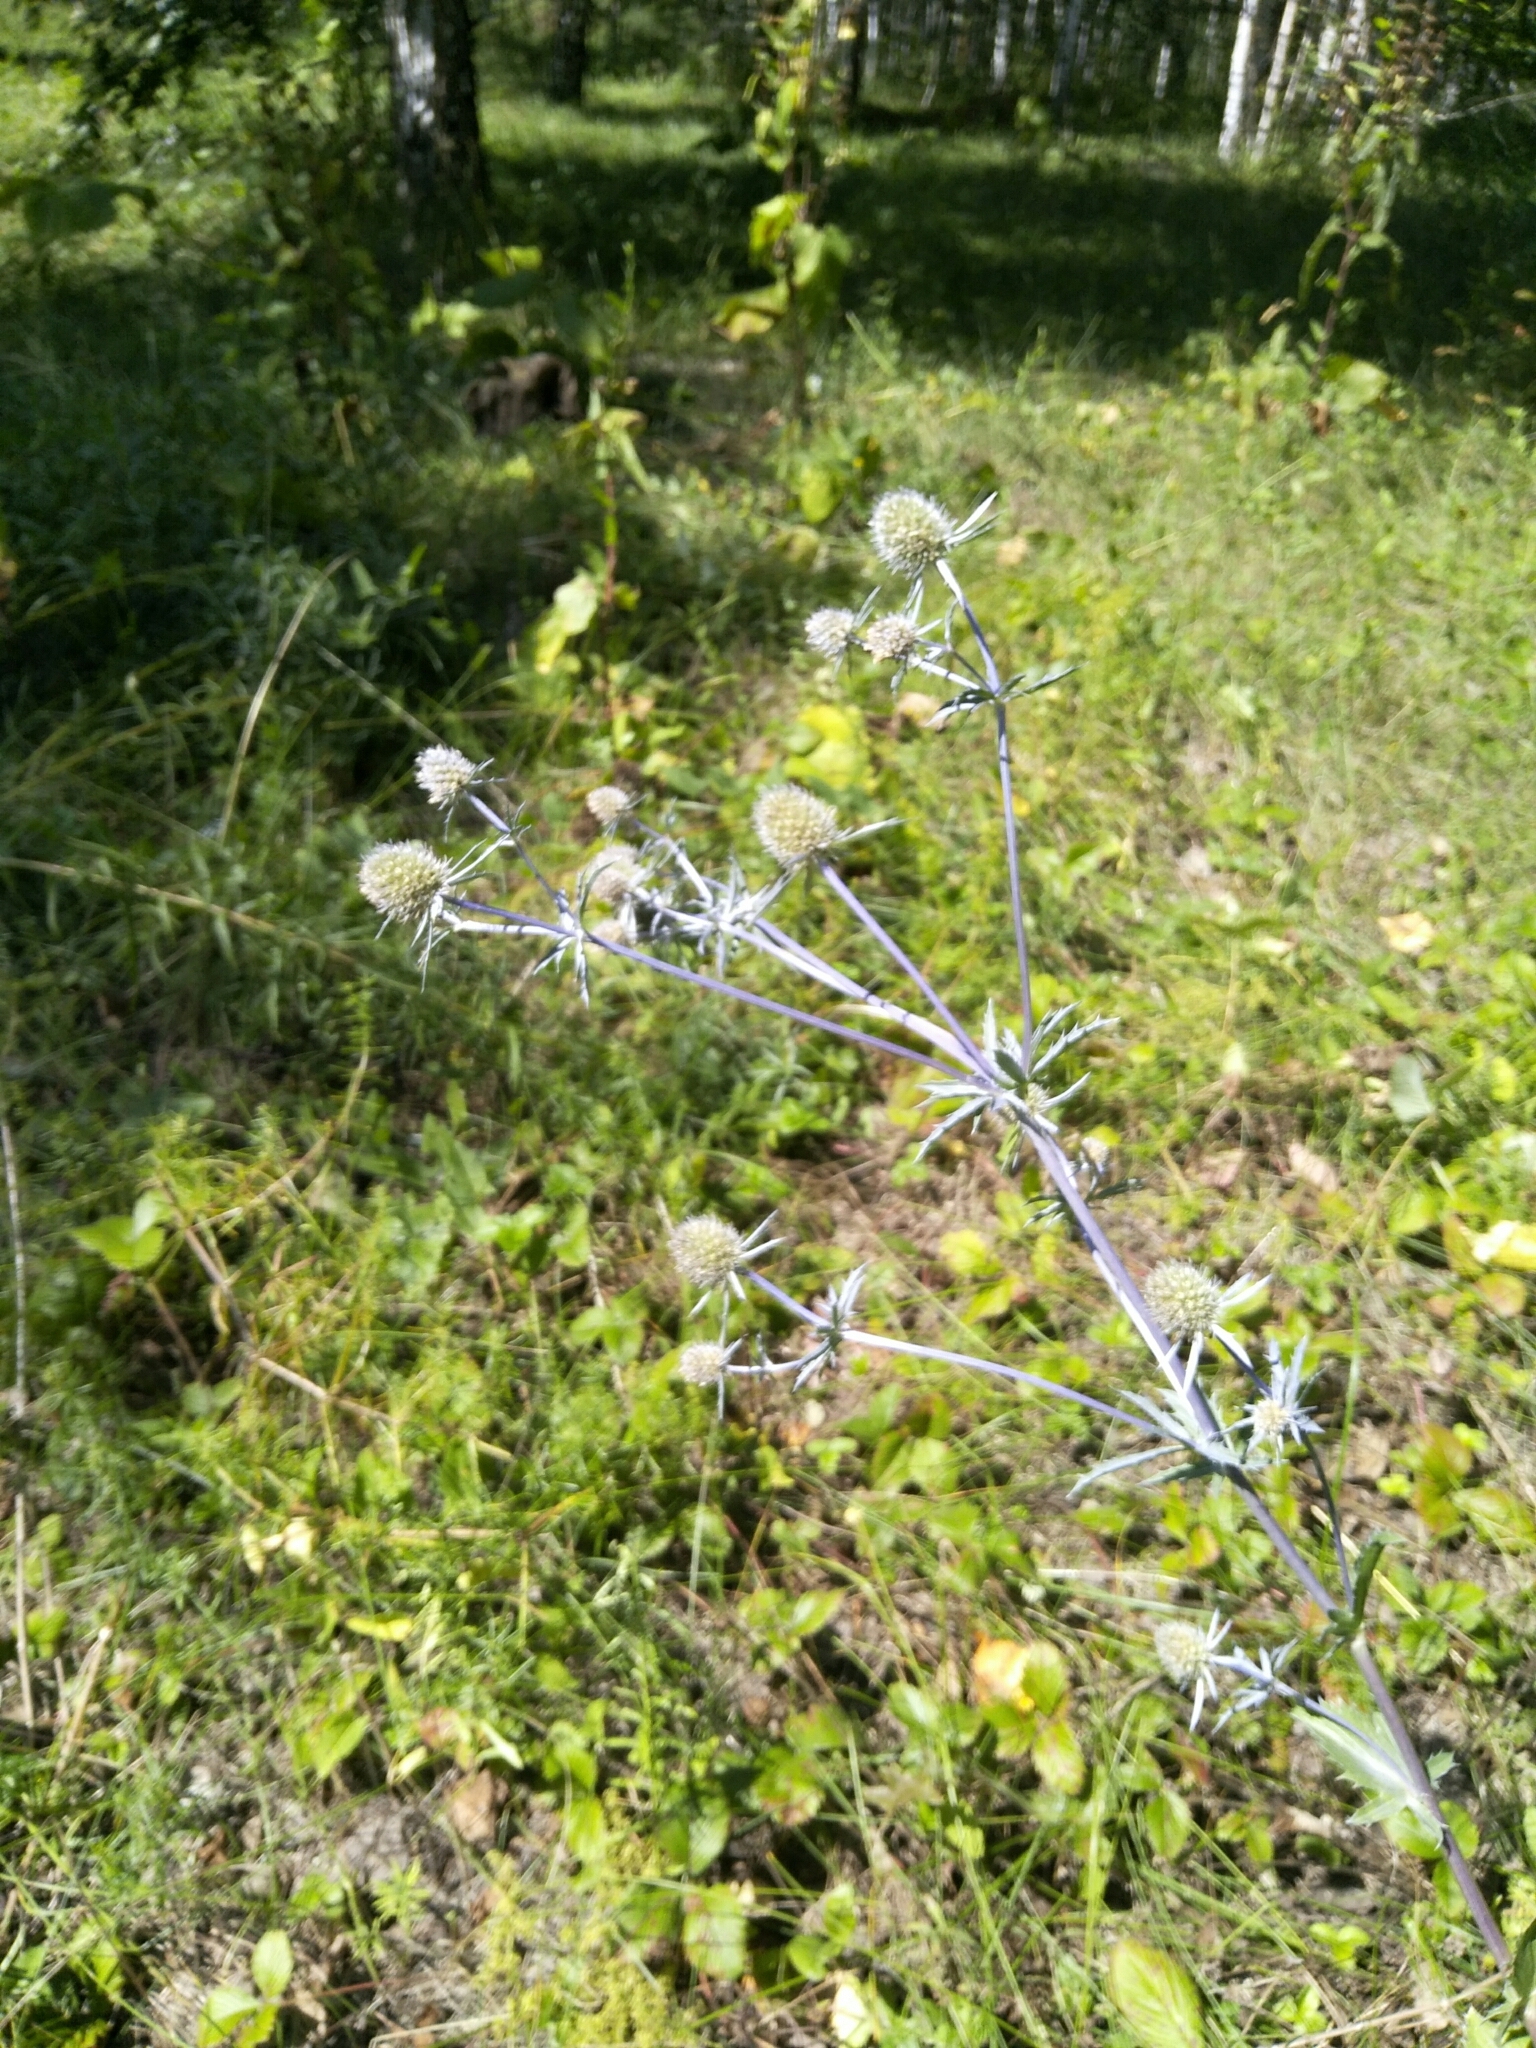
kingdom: Plantae
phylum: Tracheophyta
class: Magnoliopsida
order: Apiales
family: Apiaceae
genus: Eryngium
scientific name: Eryngium planum
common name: Blue eryngo
